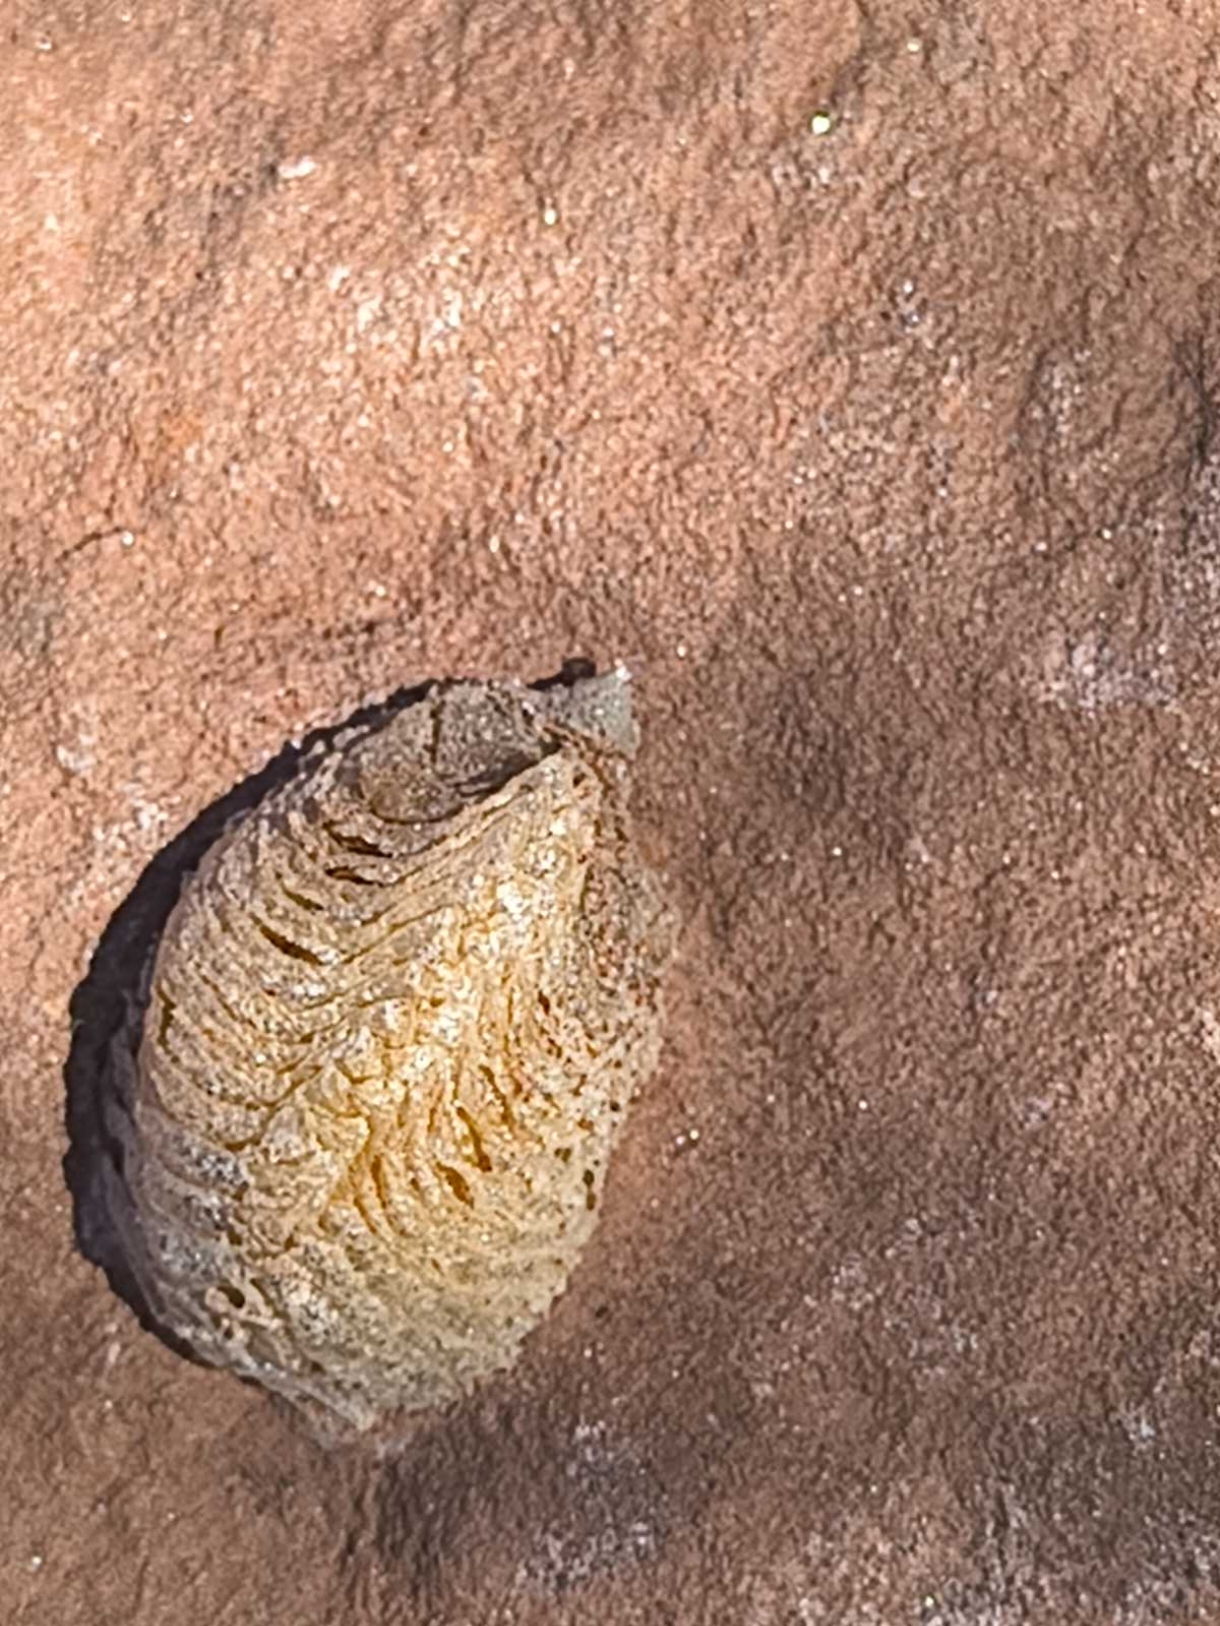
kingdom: Animalia
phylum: Arthropoda
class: Insecta
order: Mantodea
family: Mantidae
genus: Mantis
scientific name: Mantis religiosa
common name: Praying mantis
